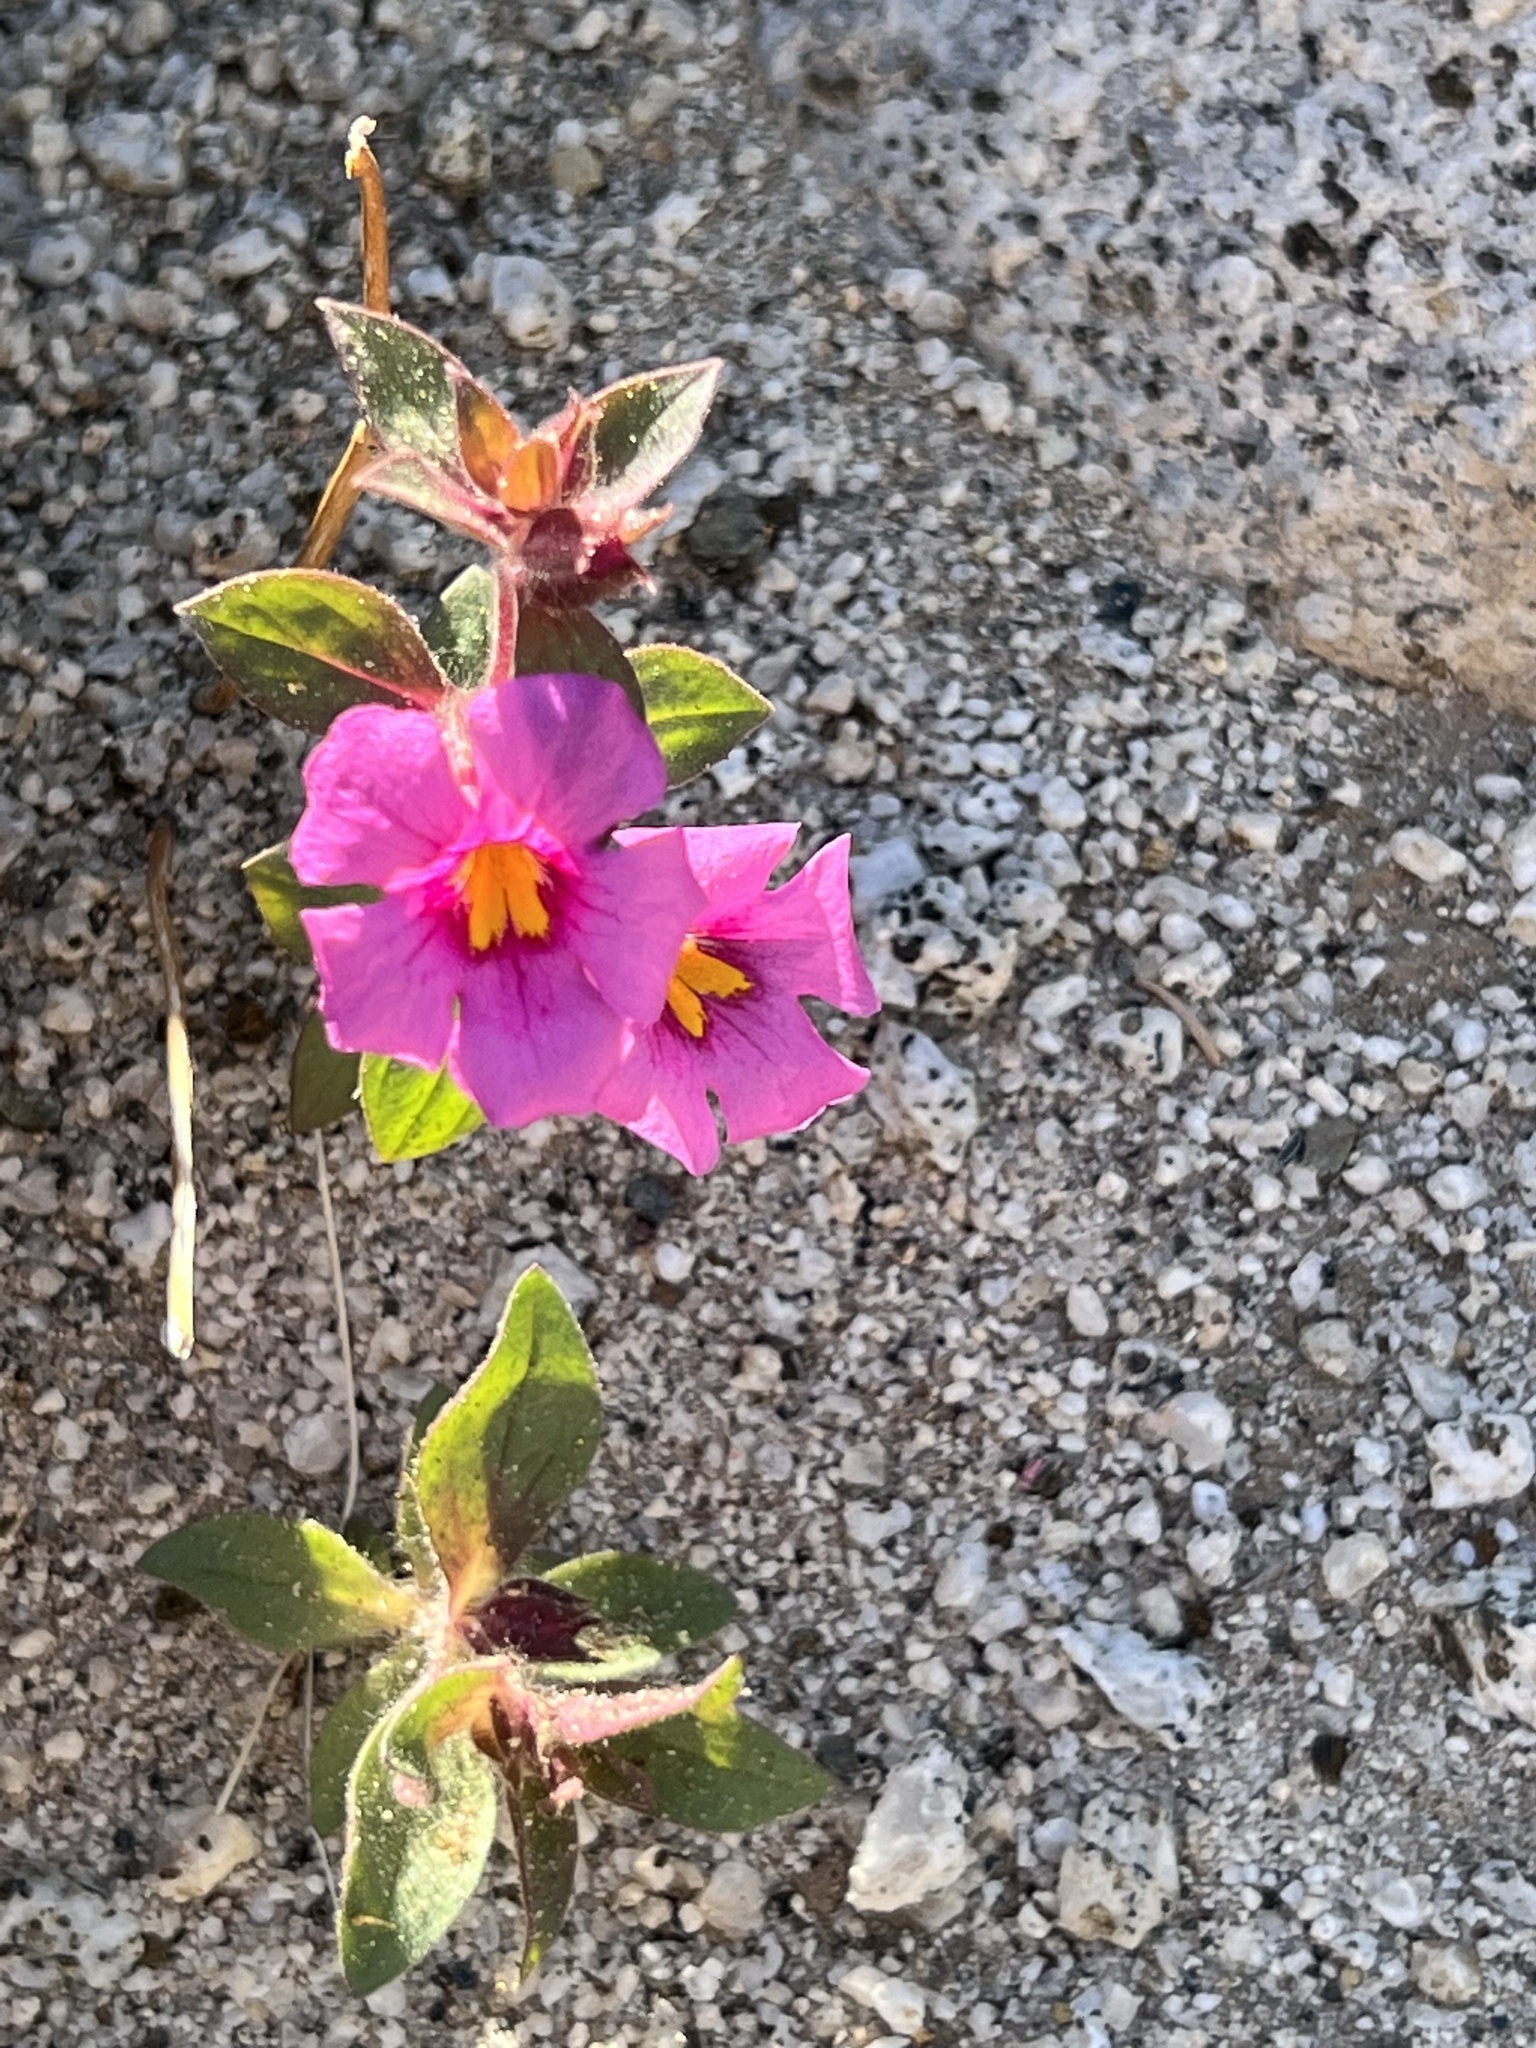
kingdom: Plantae
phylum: Tracheophyta
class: Magnoliopsida
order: Lamiales
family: Phrymaceae
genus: Diplacus
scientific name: Diplacus bigelovii
